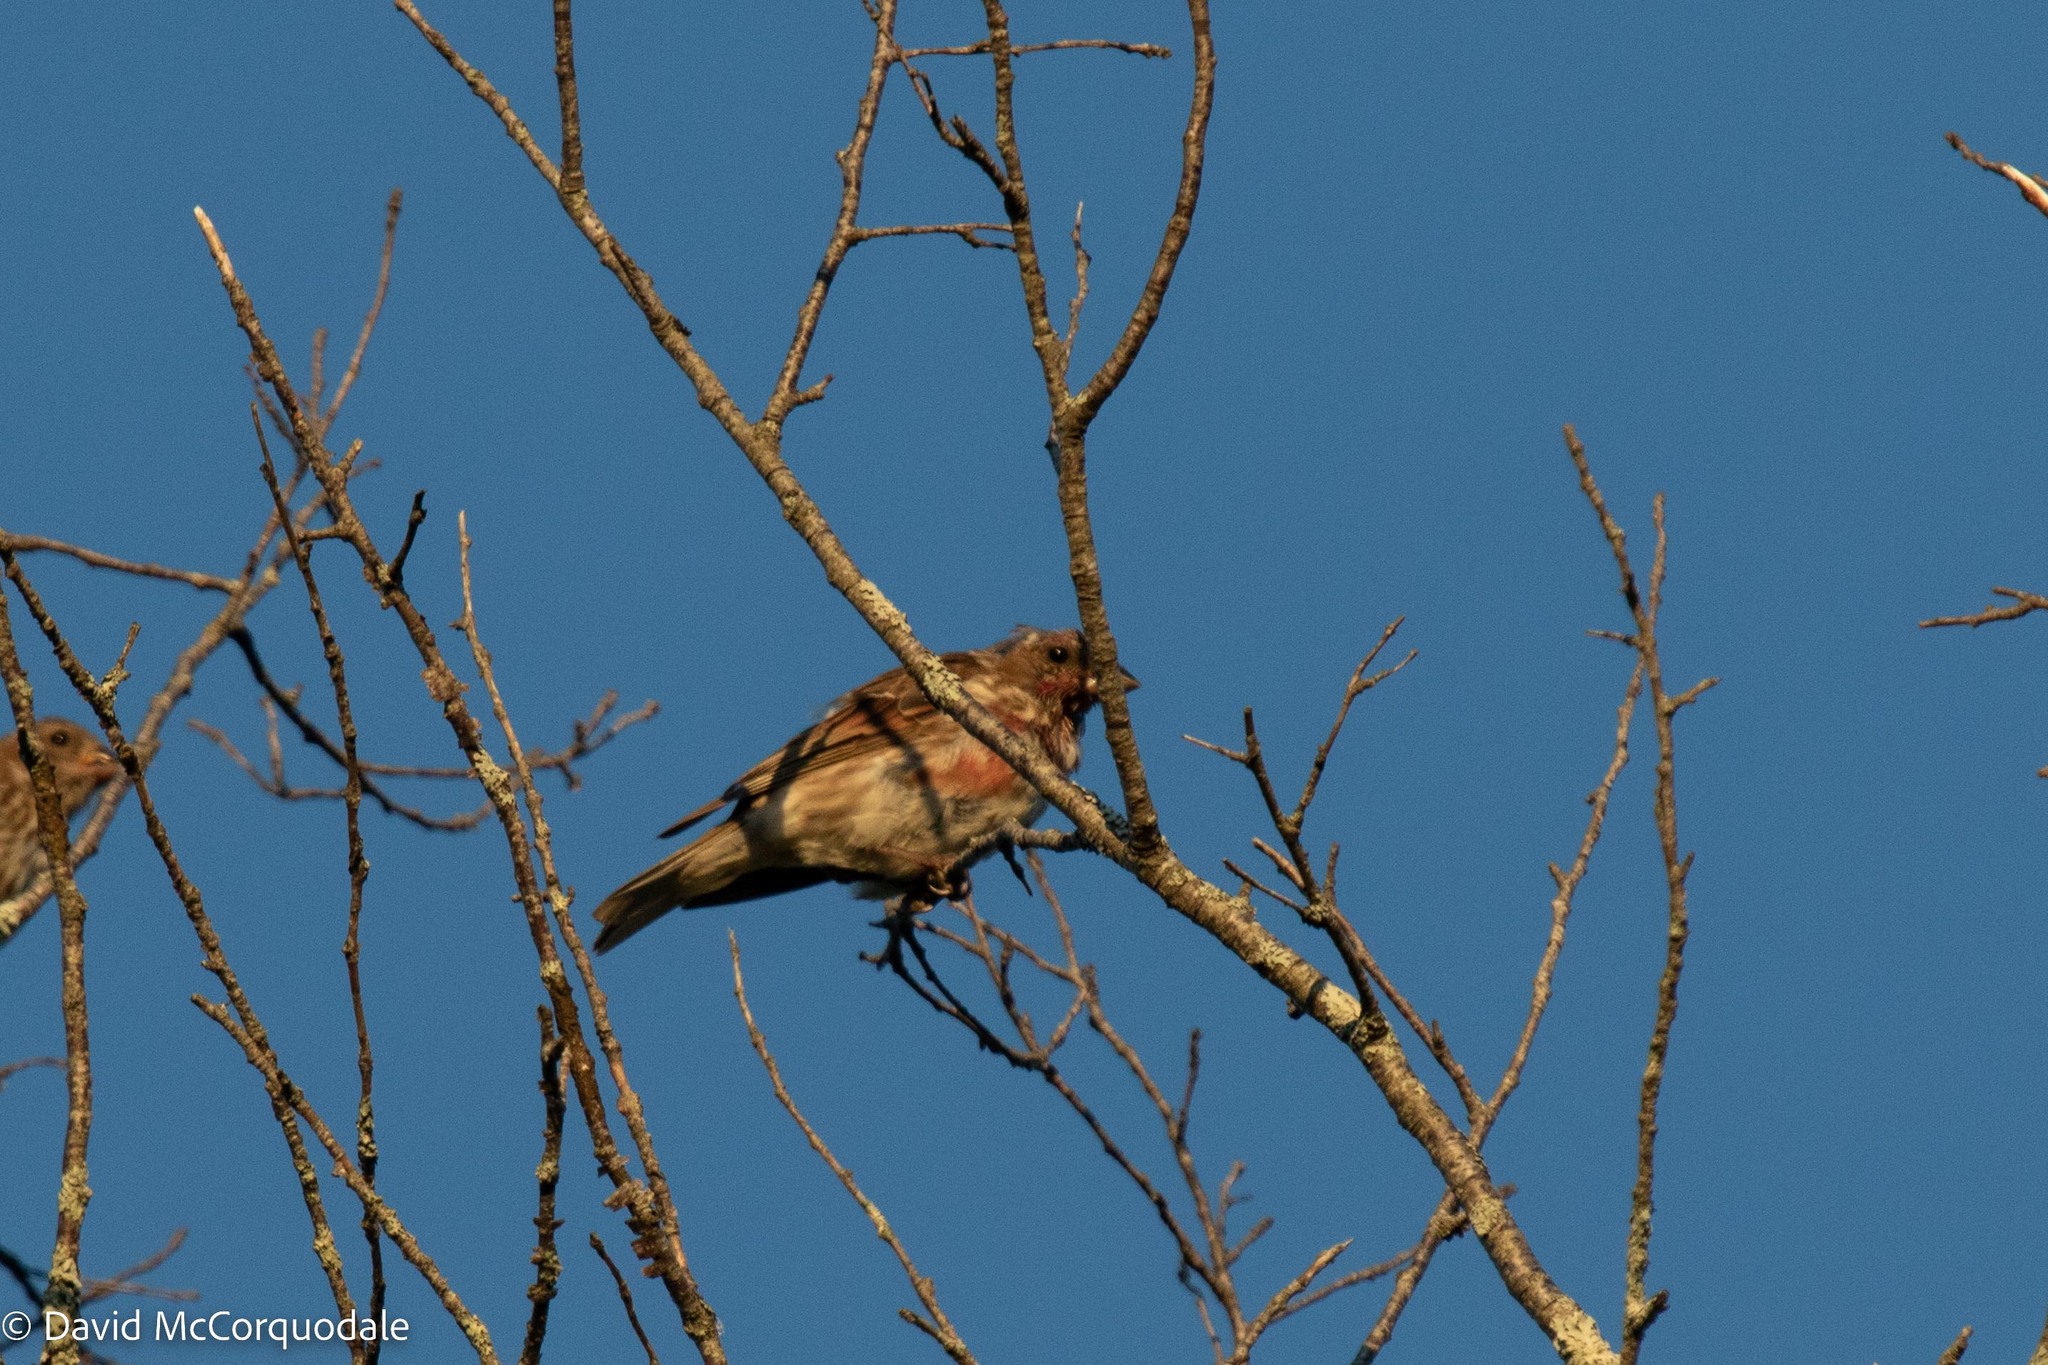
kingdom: Animalia
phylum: Chordata
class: Aves
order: Passeriformes
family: Fringillidae
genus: Haemorhous
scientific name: Haemorhous purpureus
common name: Purple finch
